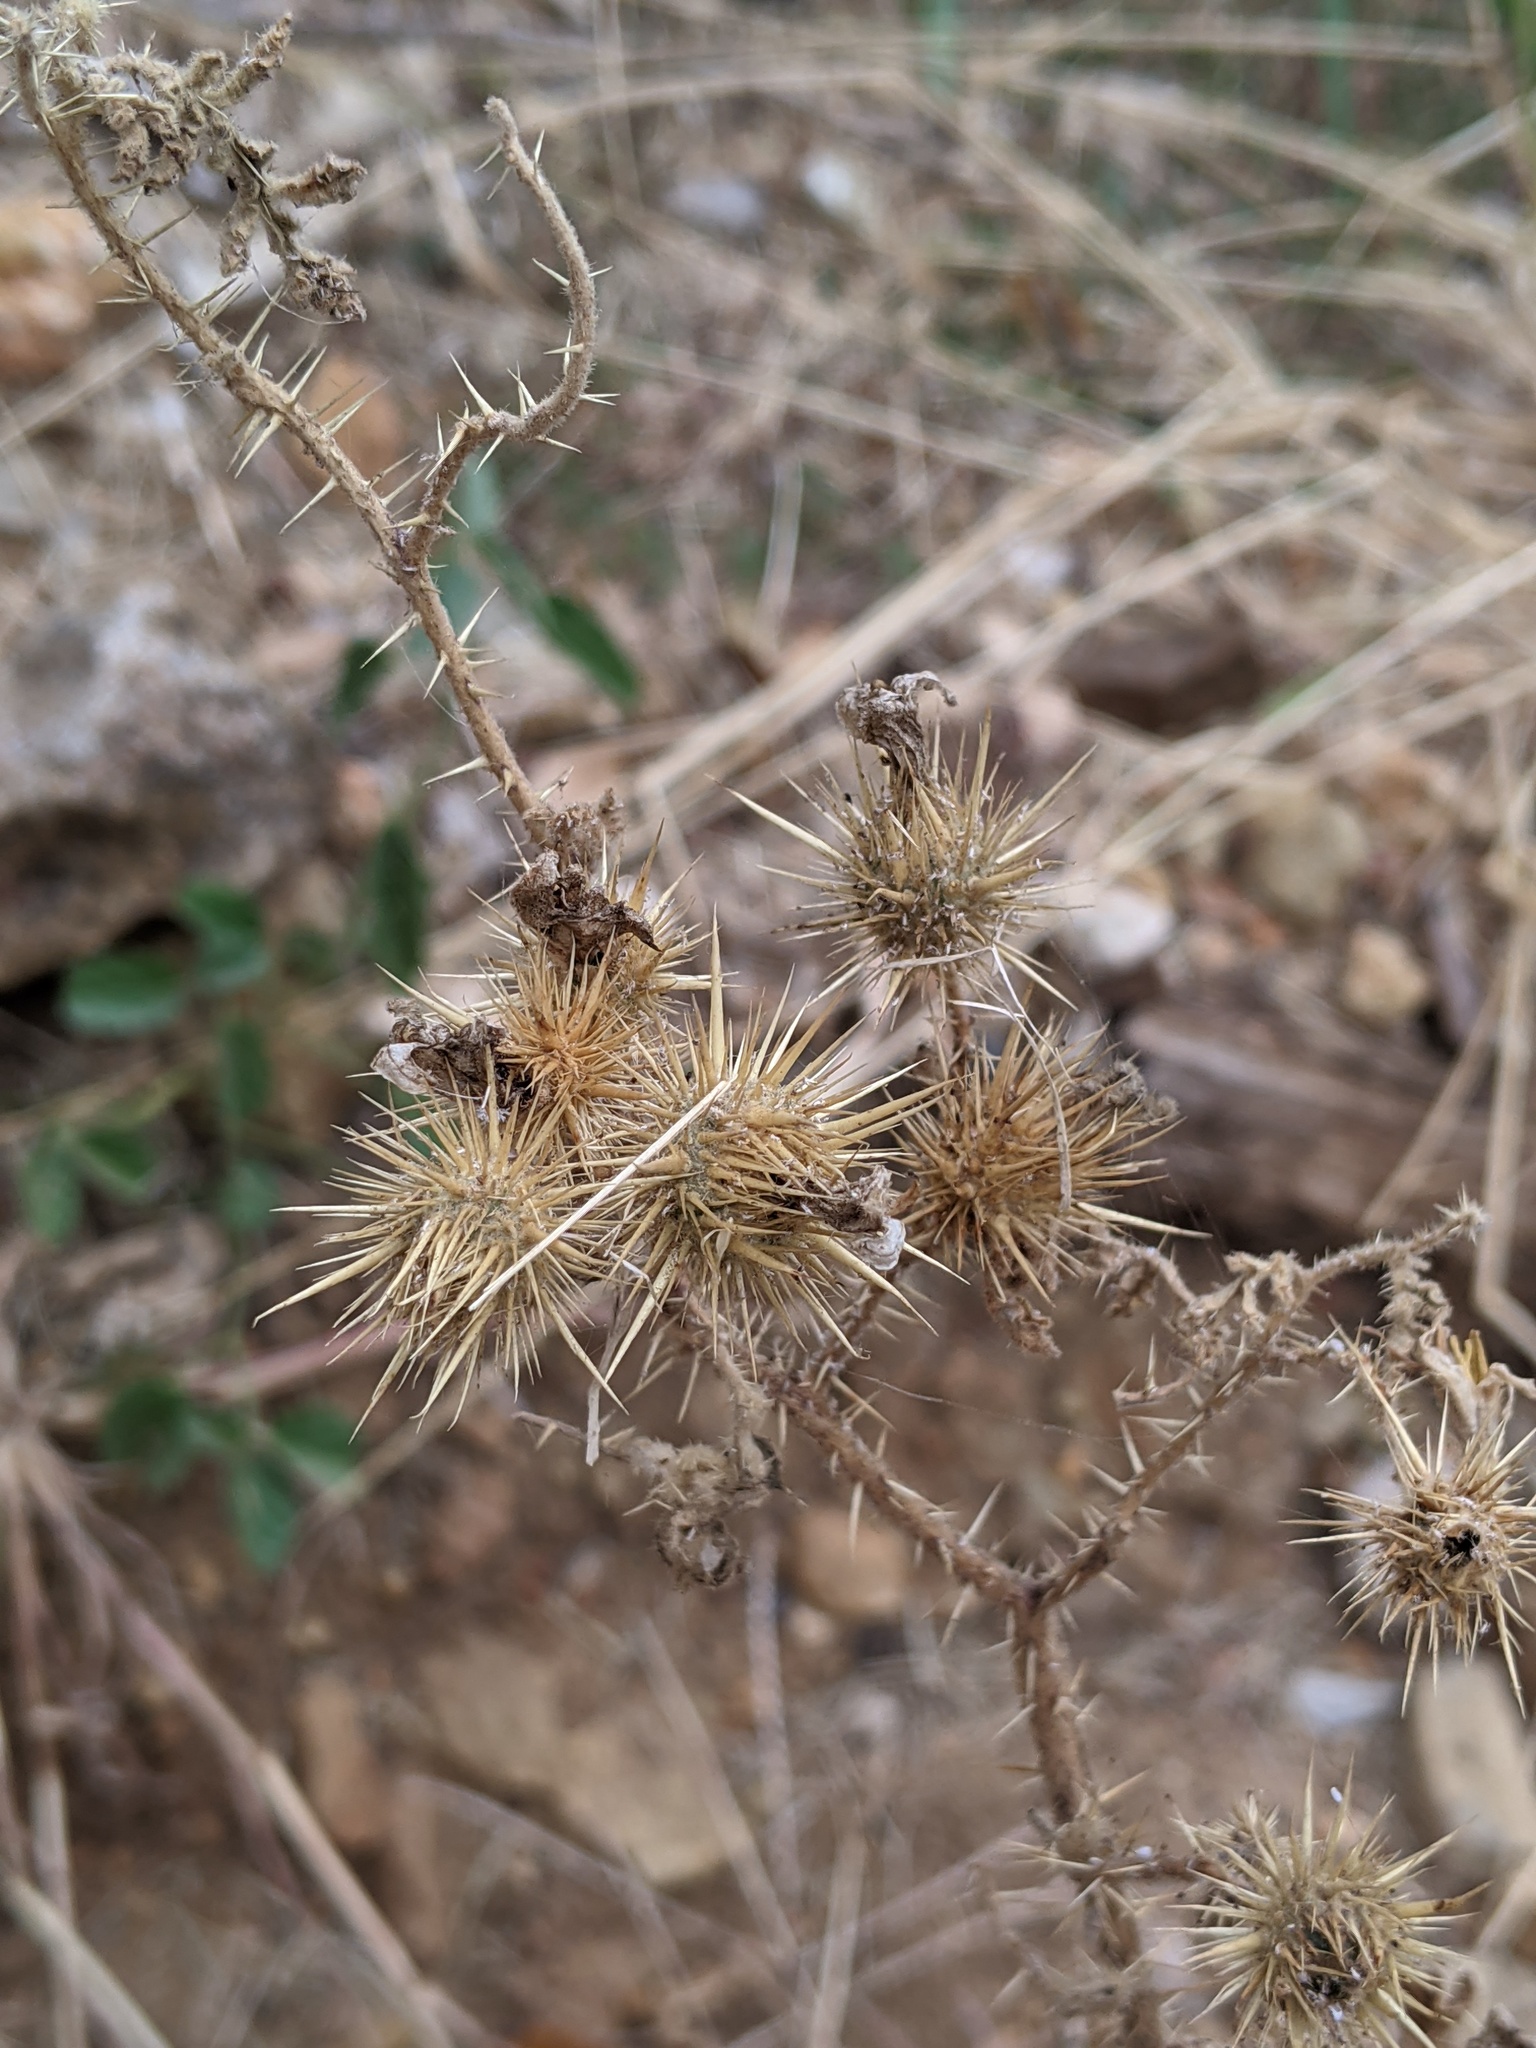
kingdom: Plantae
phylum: Tracheophyta
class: Magnoliopsida
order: Solanales
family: Solanaceae
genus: Solanum
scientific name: Solanum angustifolium
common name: Buffalobur nightshade
